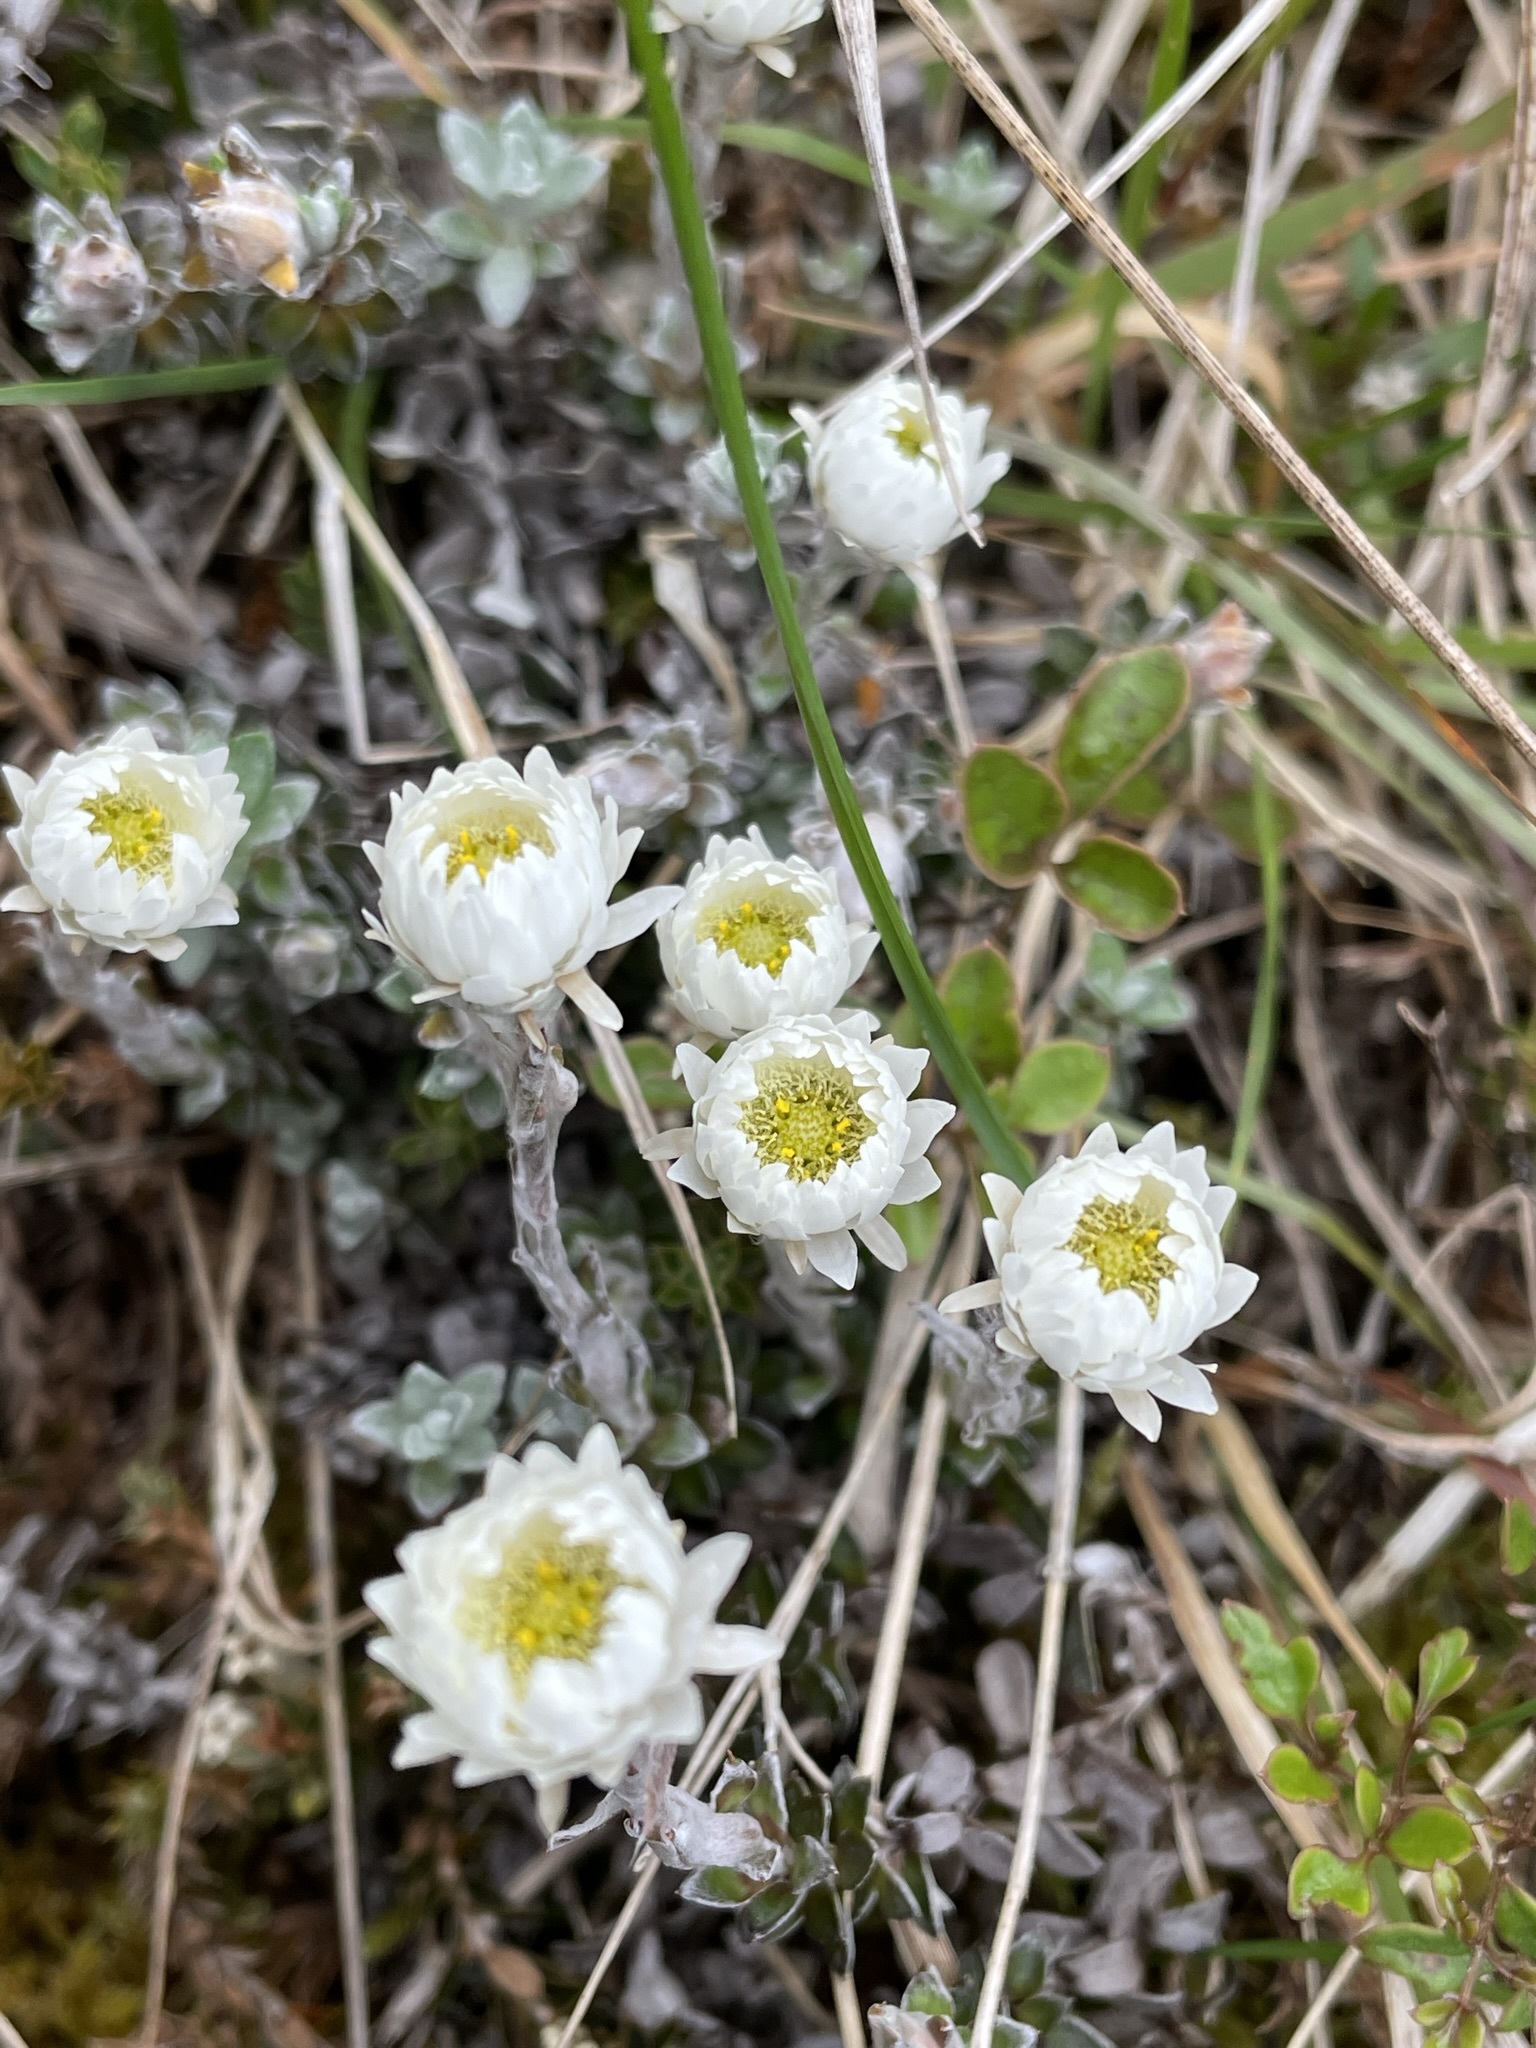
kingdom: Plantae
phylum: Tracheophyta
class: Magnoliopsida
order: Asterales
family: Asteraceae
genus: Anaphalioides
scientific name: Anaphalioides bellidioides
